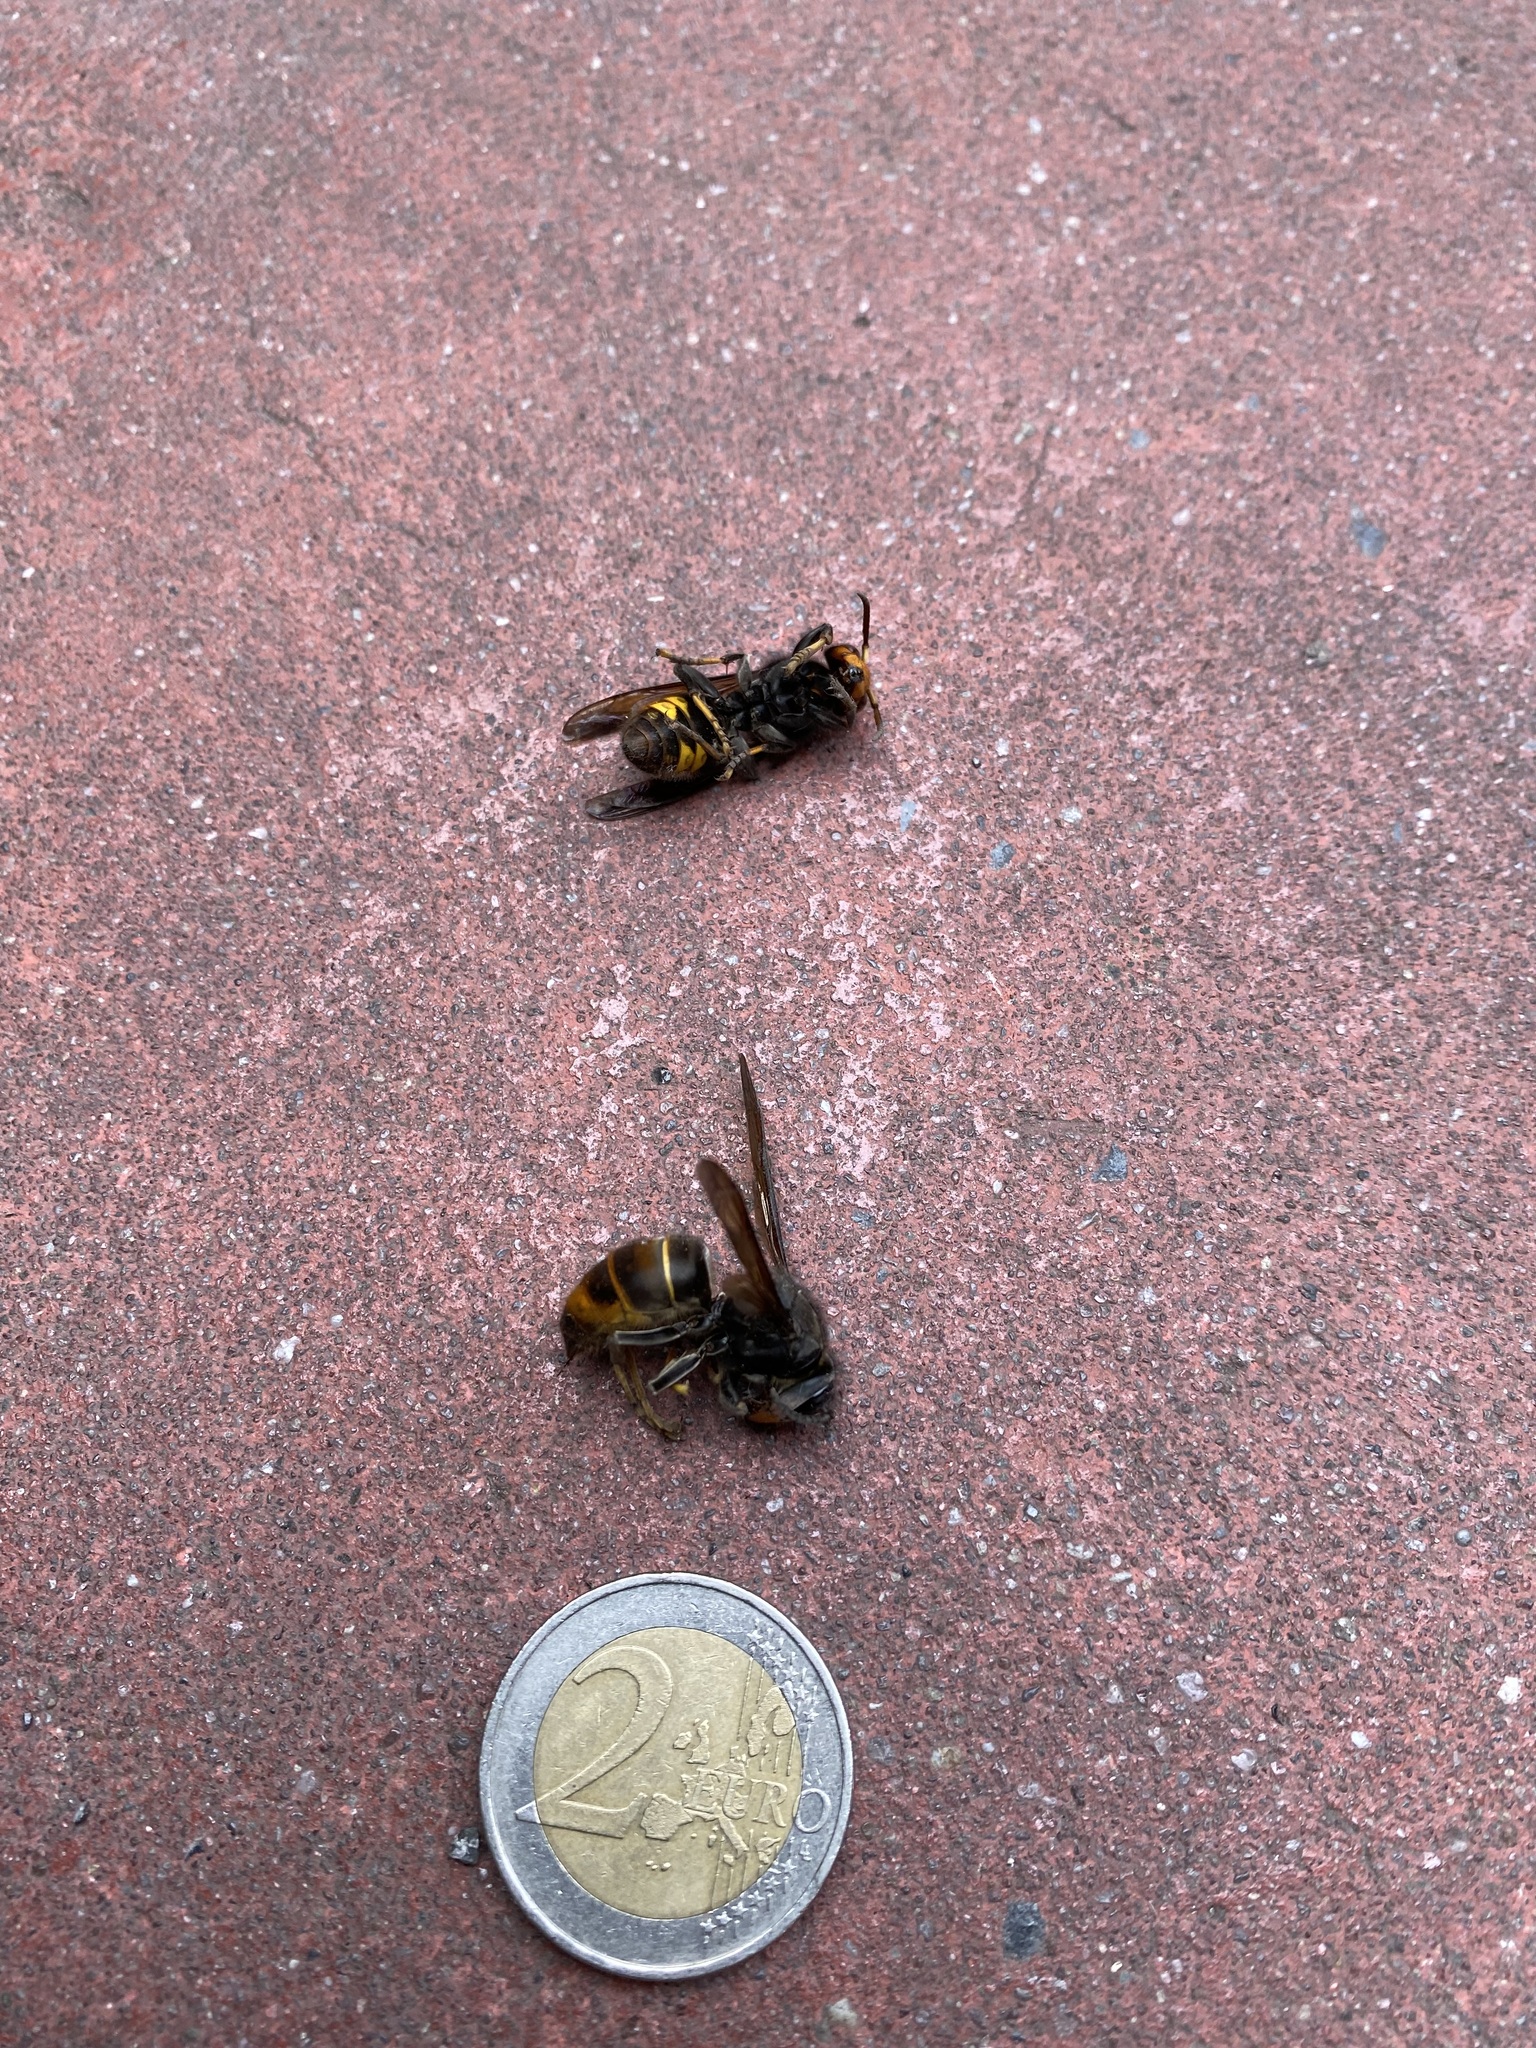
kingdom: Animalia
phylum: Arthropoda
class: Insecta
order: Hymenoptera
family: Vespidae
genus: Vespa
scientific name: Vespa velutina
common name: Asian hornet
